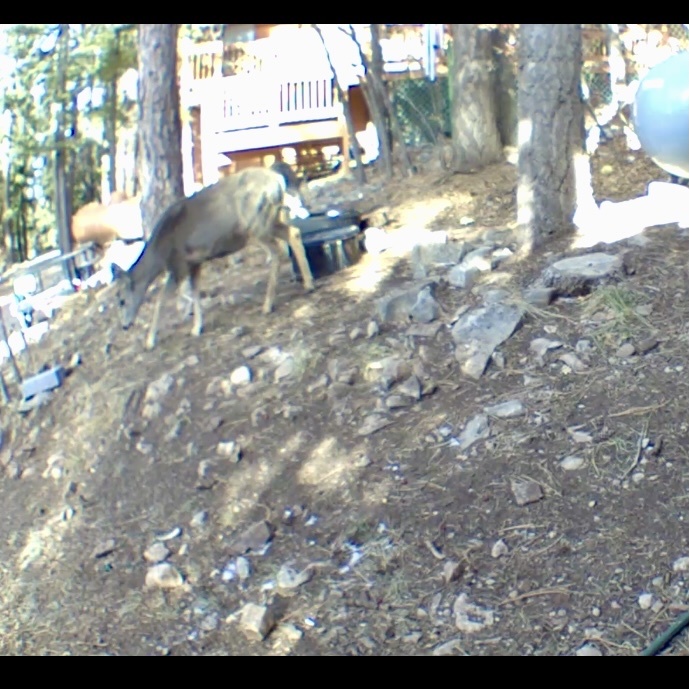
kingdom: Animalia
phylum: Chordata
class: Mammalia
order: Artiodactyla
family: Cervidae
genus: Odocoileus
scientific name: Odocoileus hemionus
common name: Mule deer
